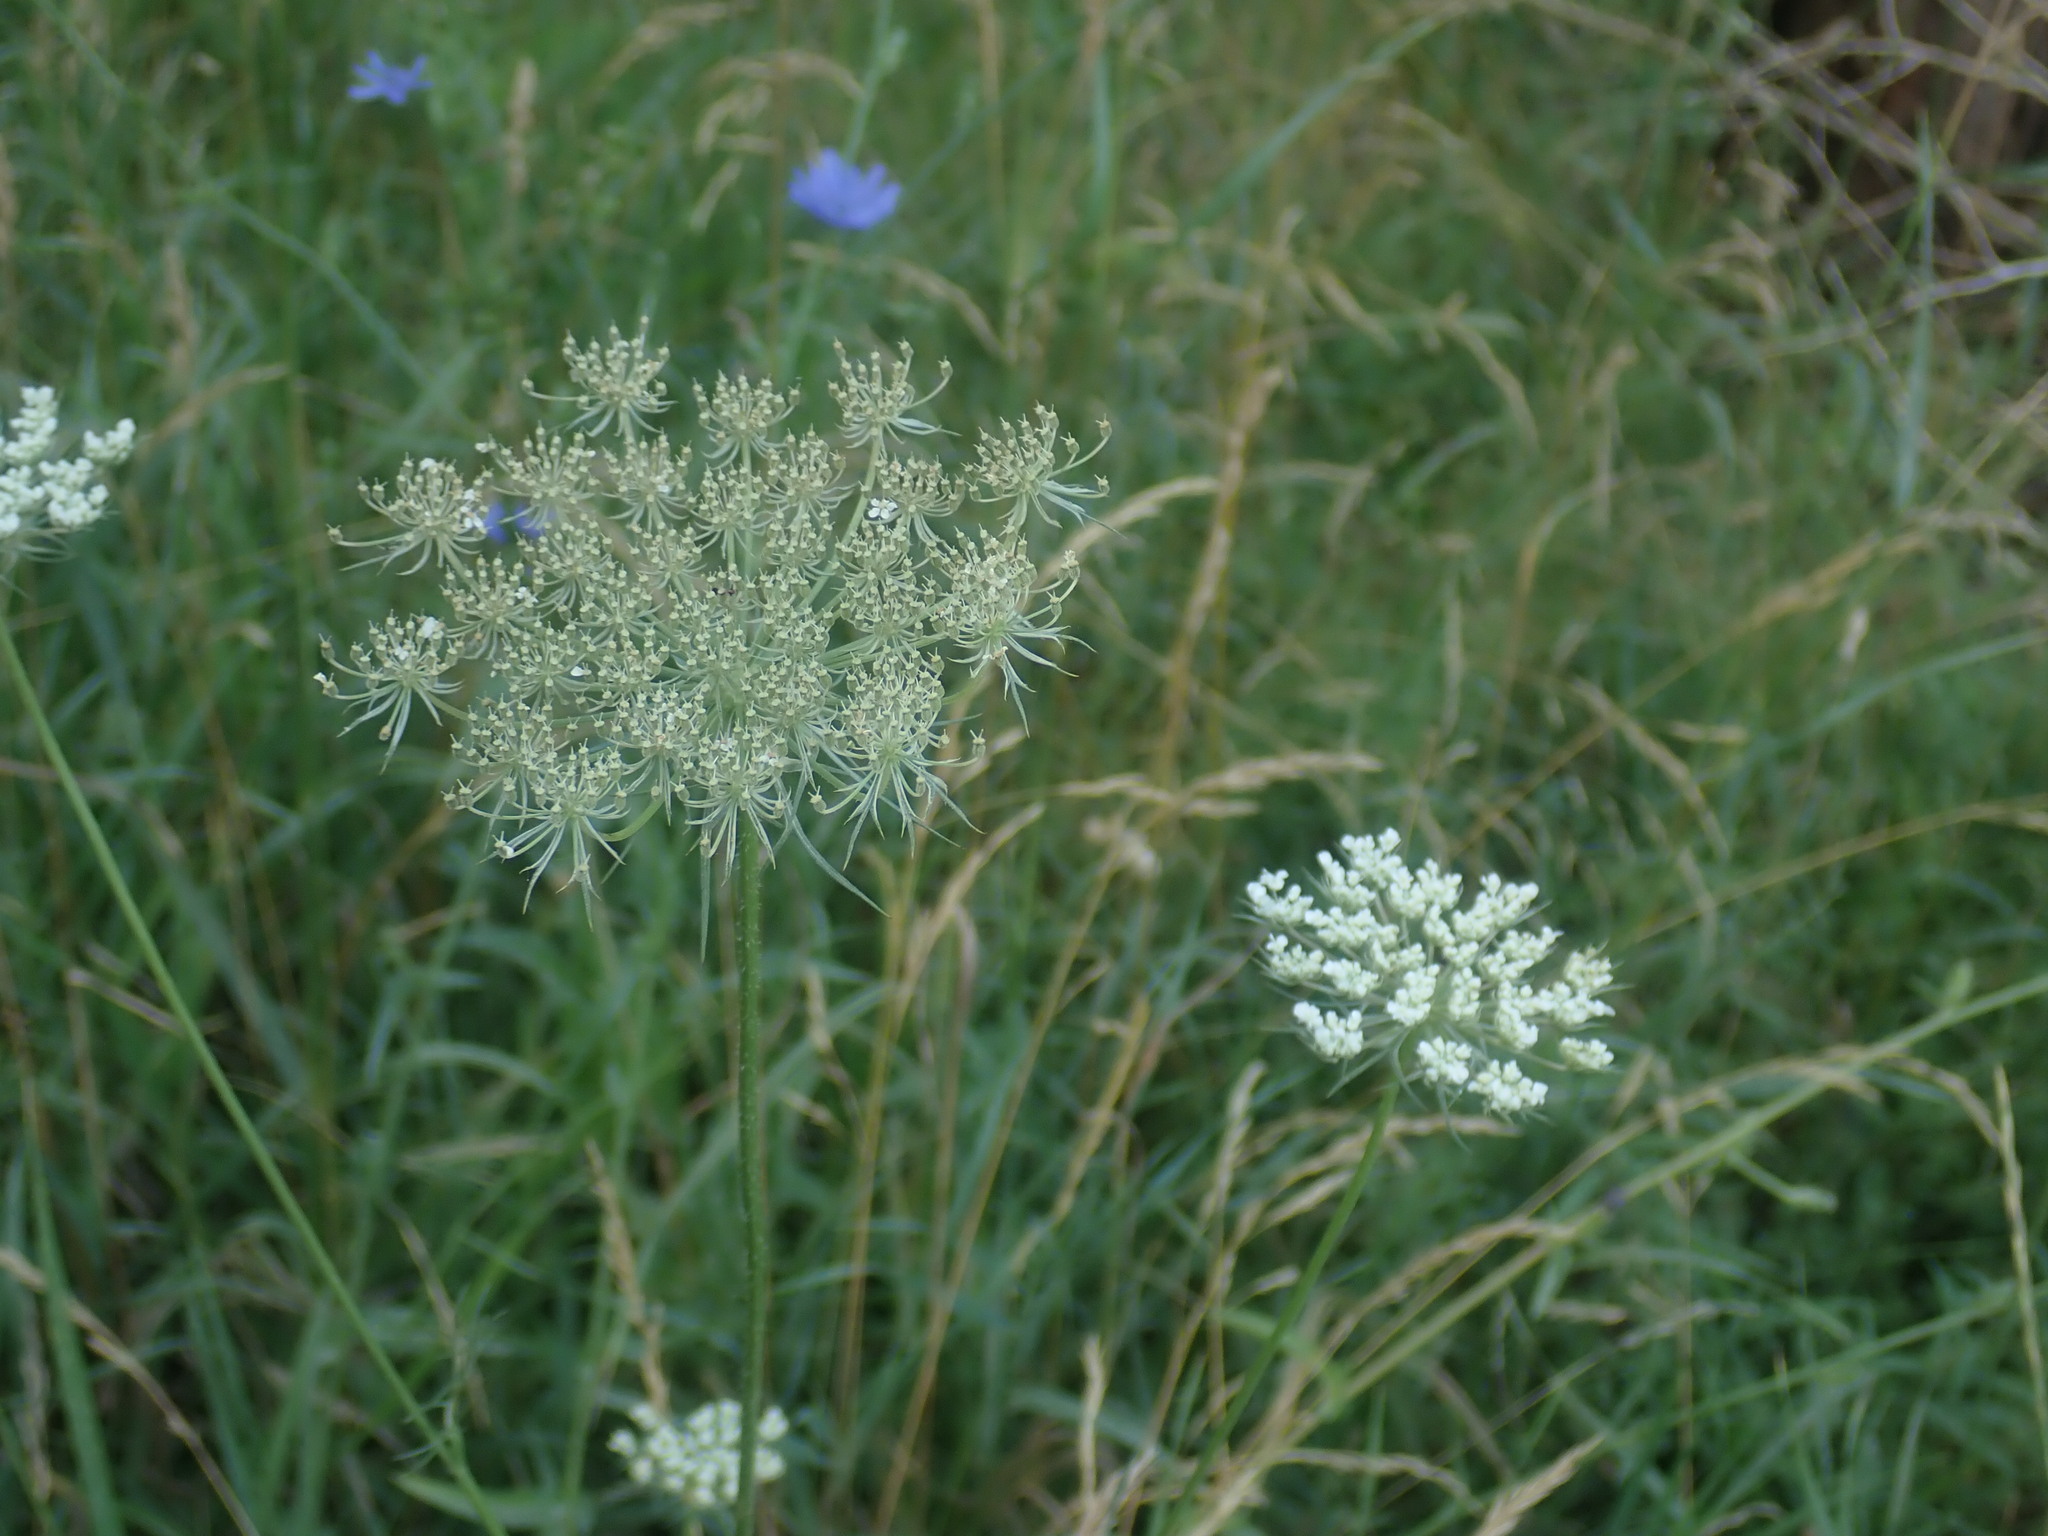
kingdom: Plantae
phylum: Tracheophyta
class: Magnoliopsida
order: Apiales
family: Apiaceae
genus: Daucus
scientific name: Daucus carota
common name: Wild carrot
